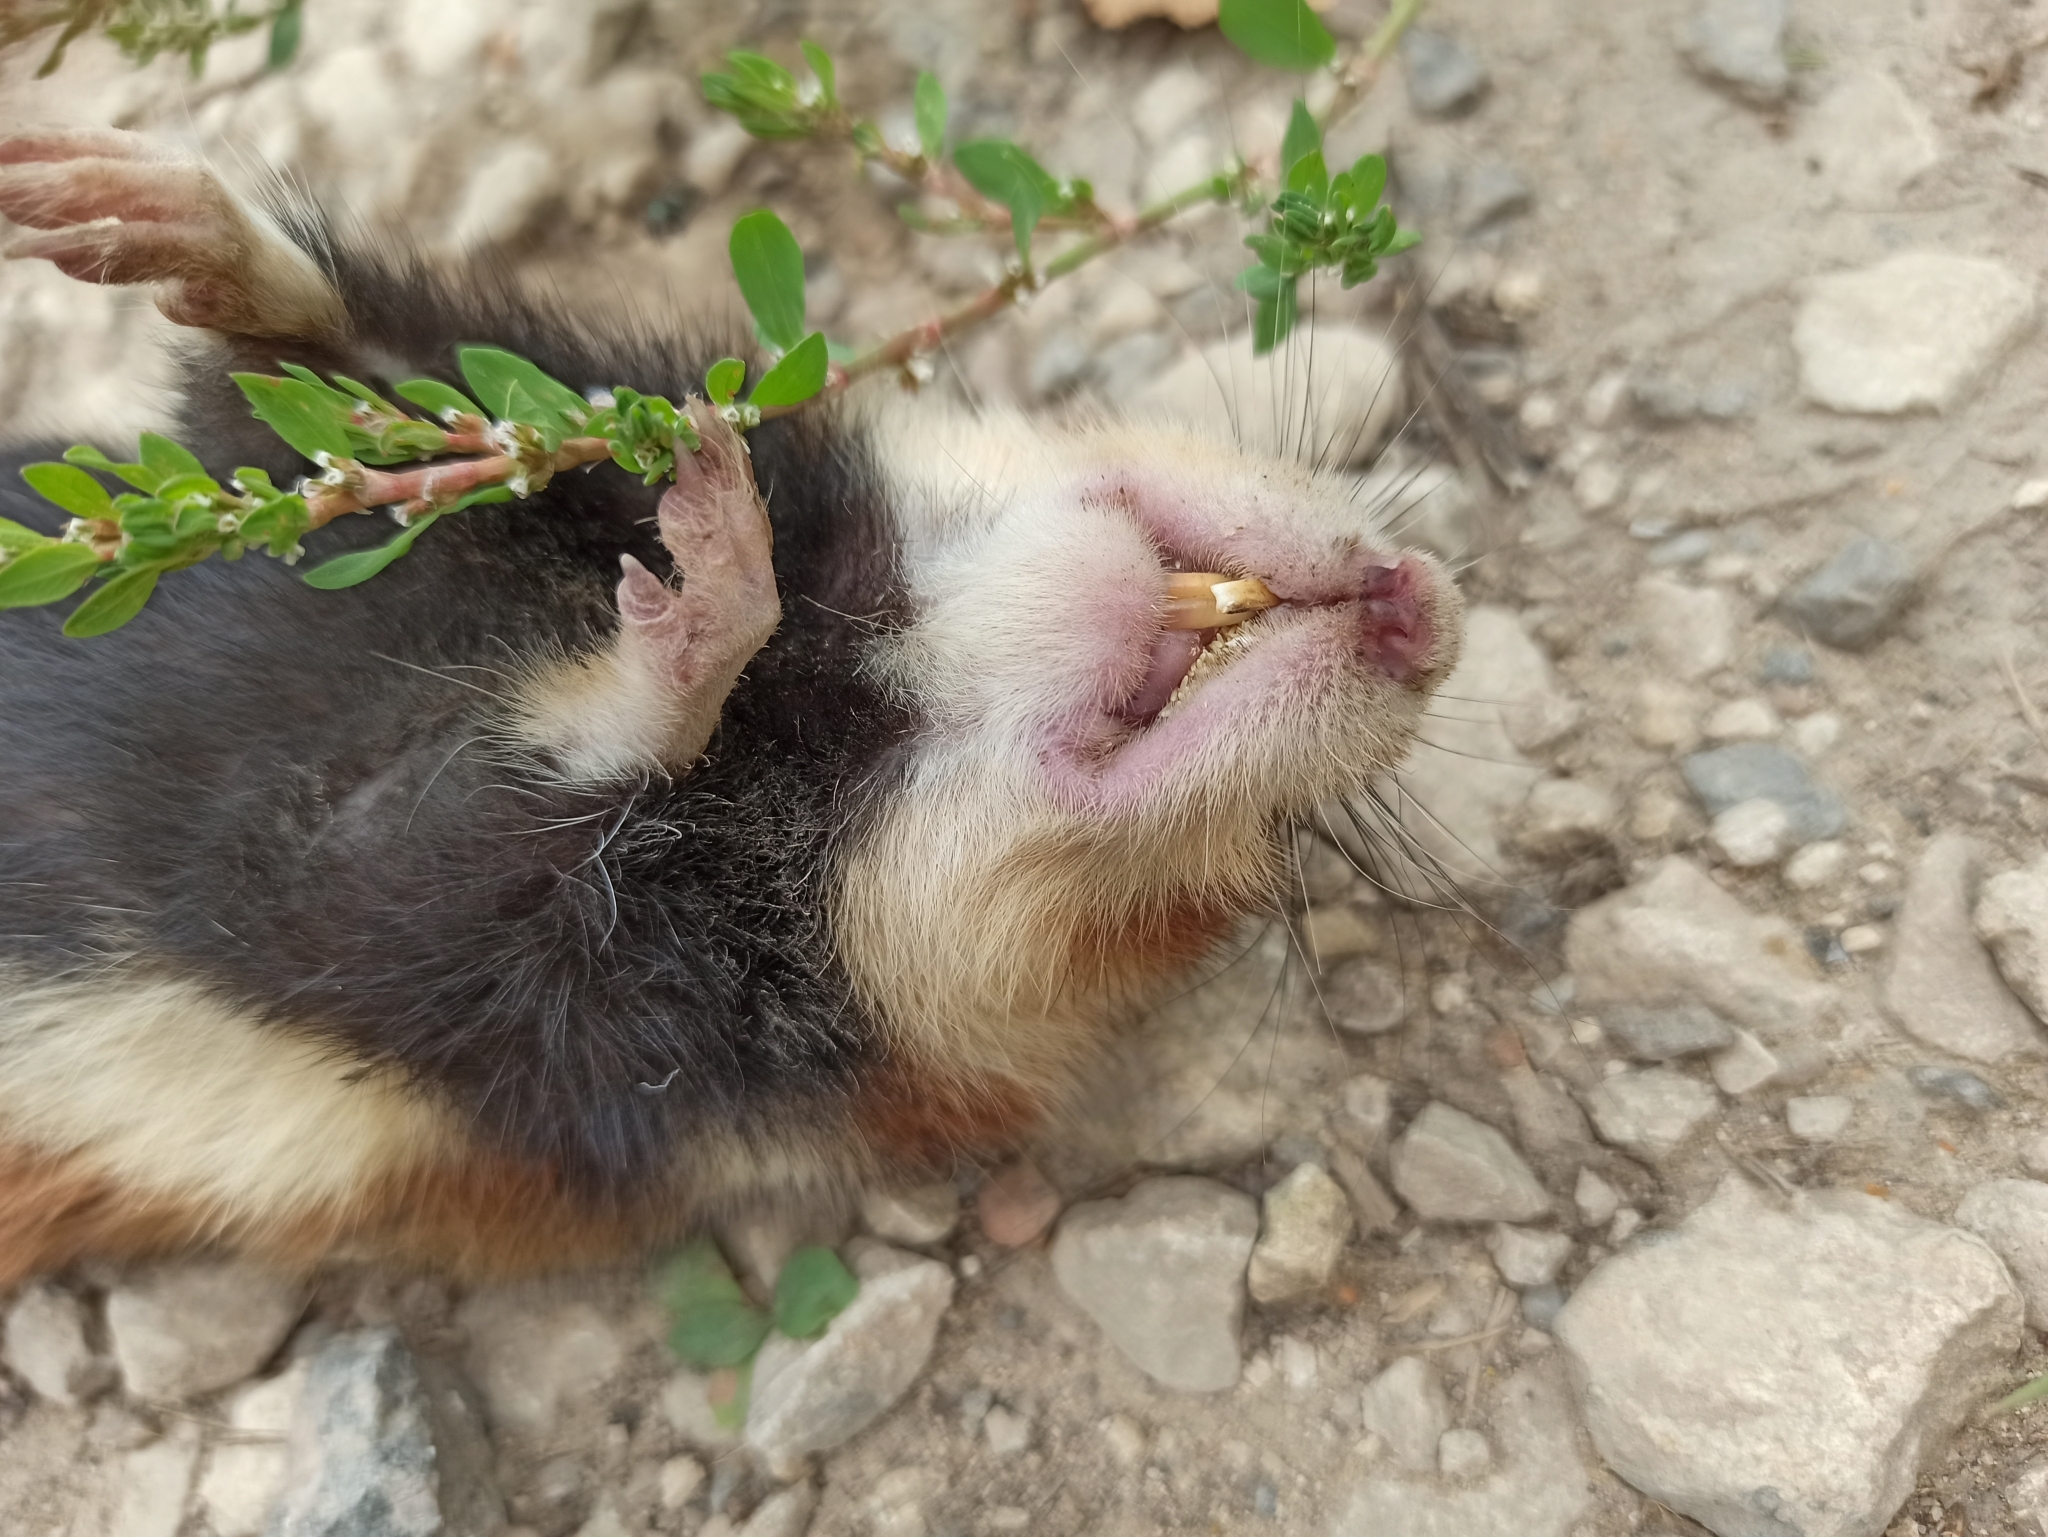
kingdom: Animalia
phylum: Chordata
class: Mammalia
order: Rodentia
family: Cricetidae
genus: Cricetus
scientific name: Cricetus cricetus
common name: Common hamster
